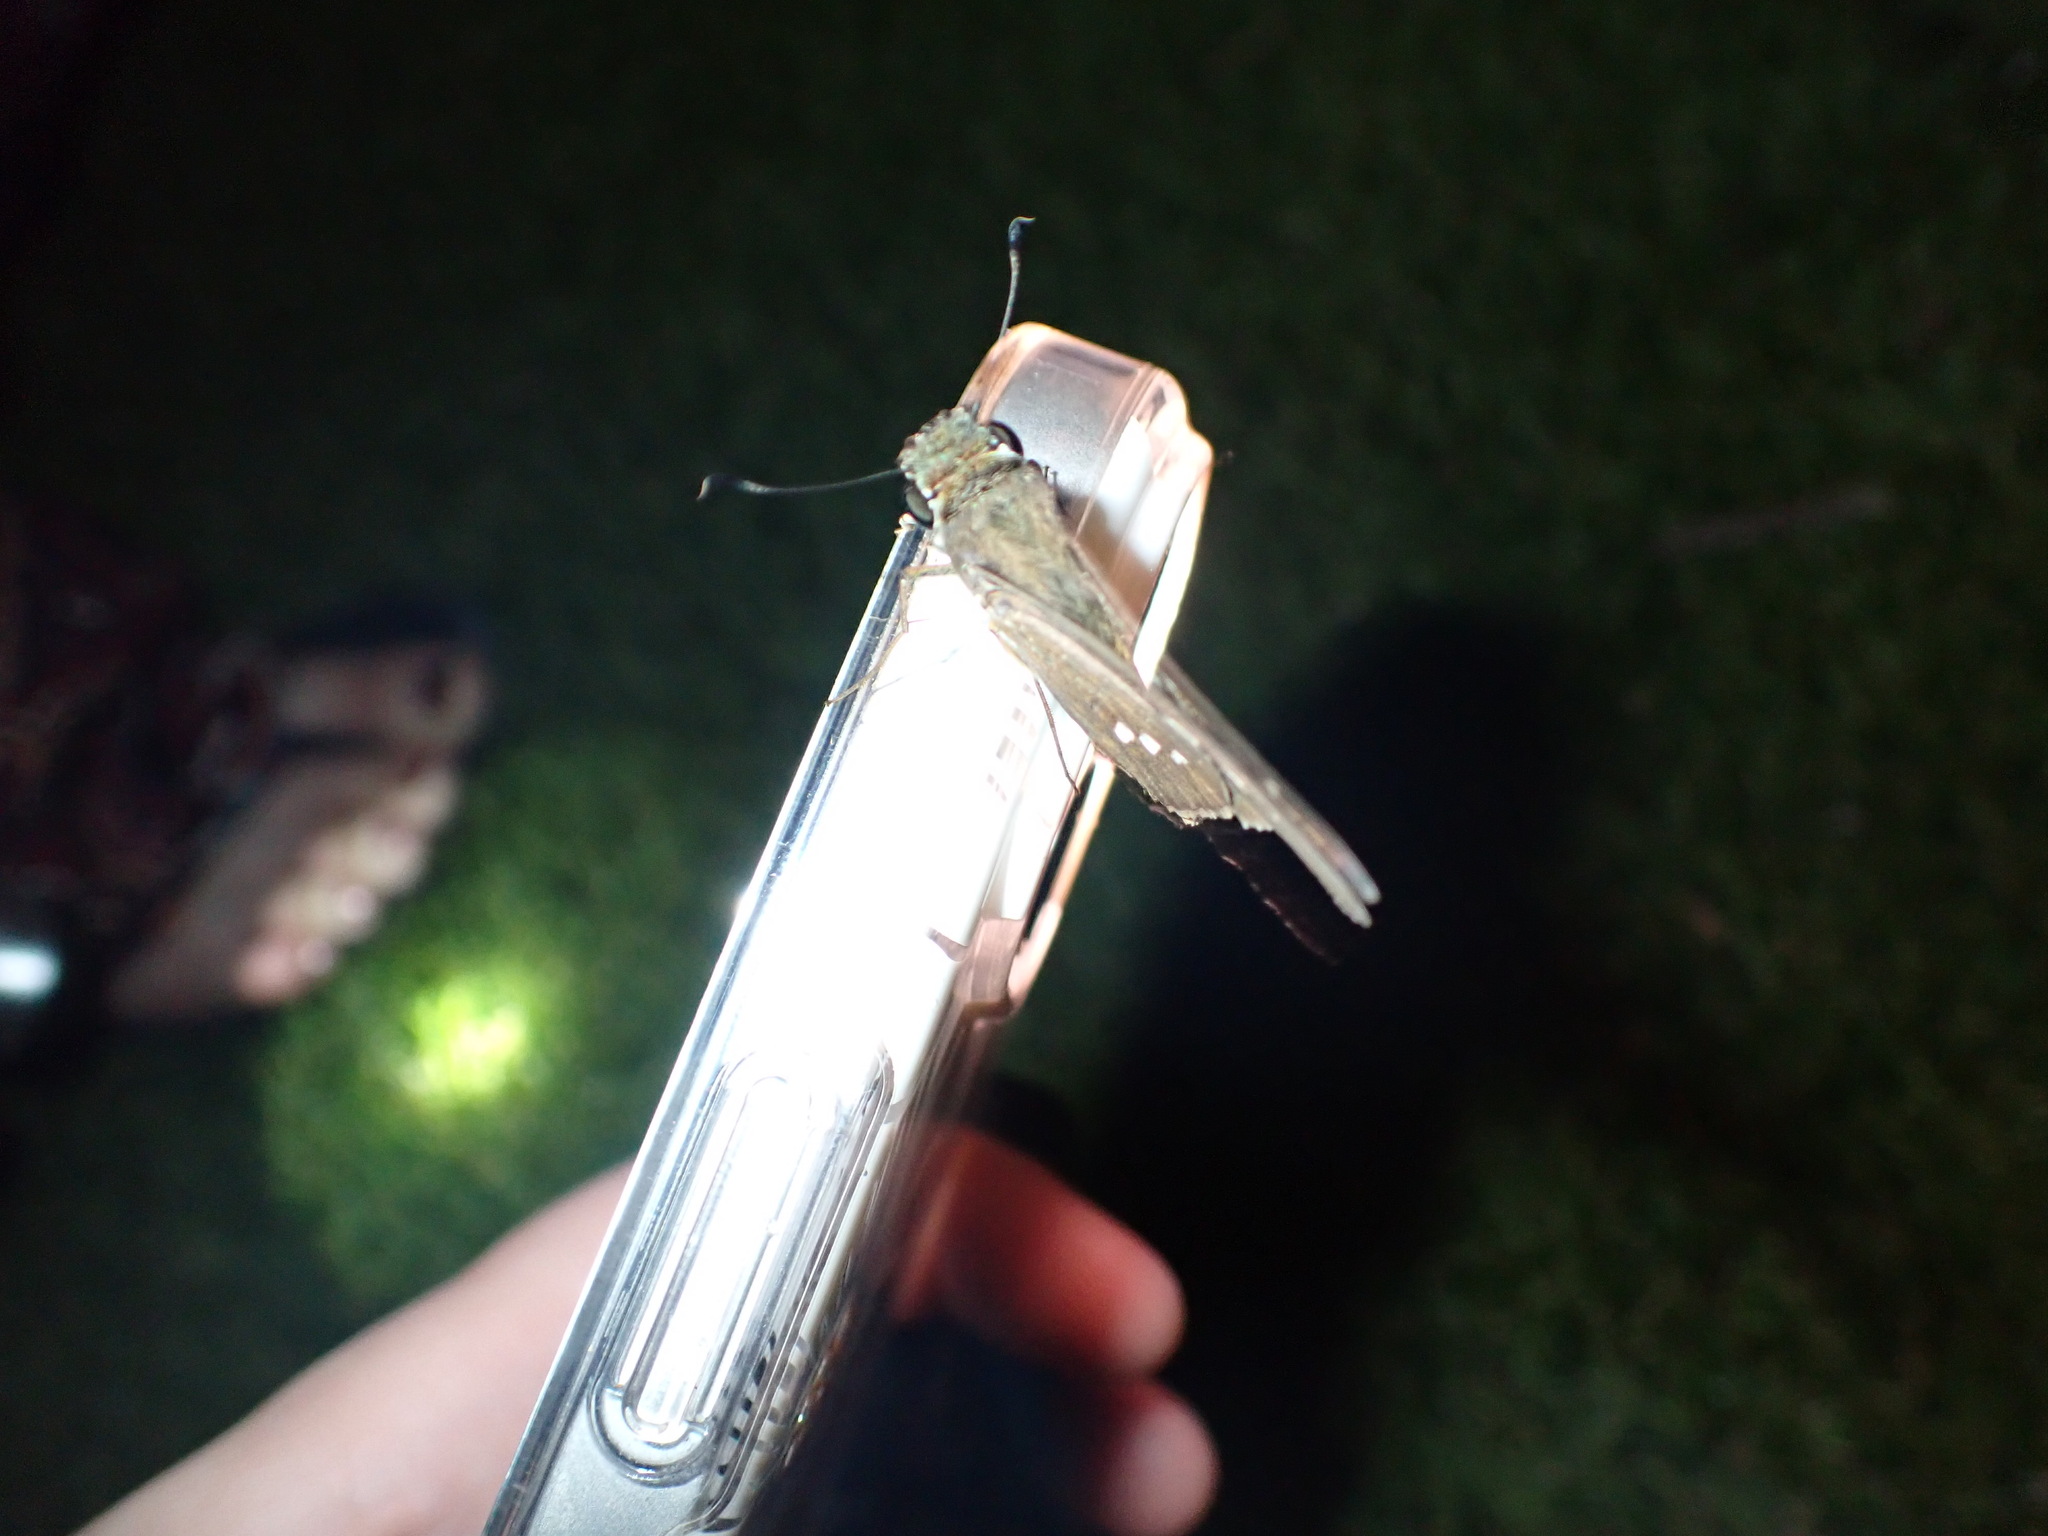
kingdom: Animalia
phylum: Arthropoda
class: Insecta
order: Lepidoptera
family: Hesperiidae
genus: Calpodes
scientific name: Calpodes ethlius
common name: Brazilian skipper
